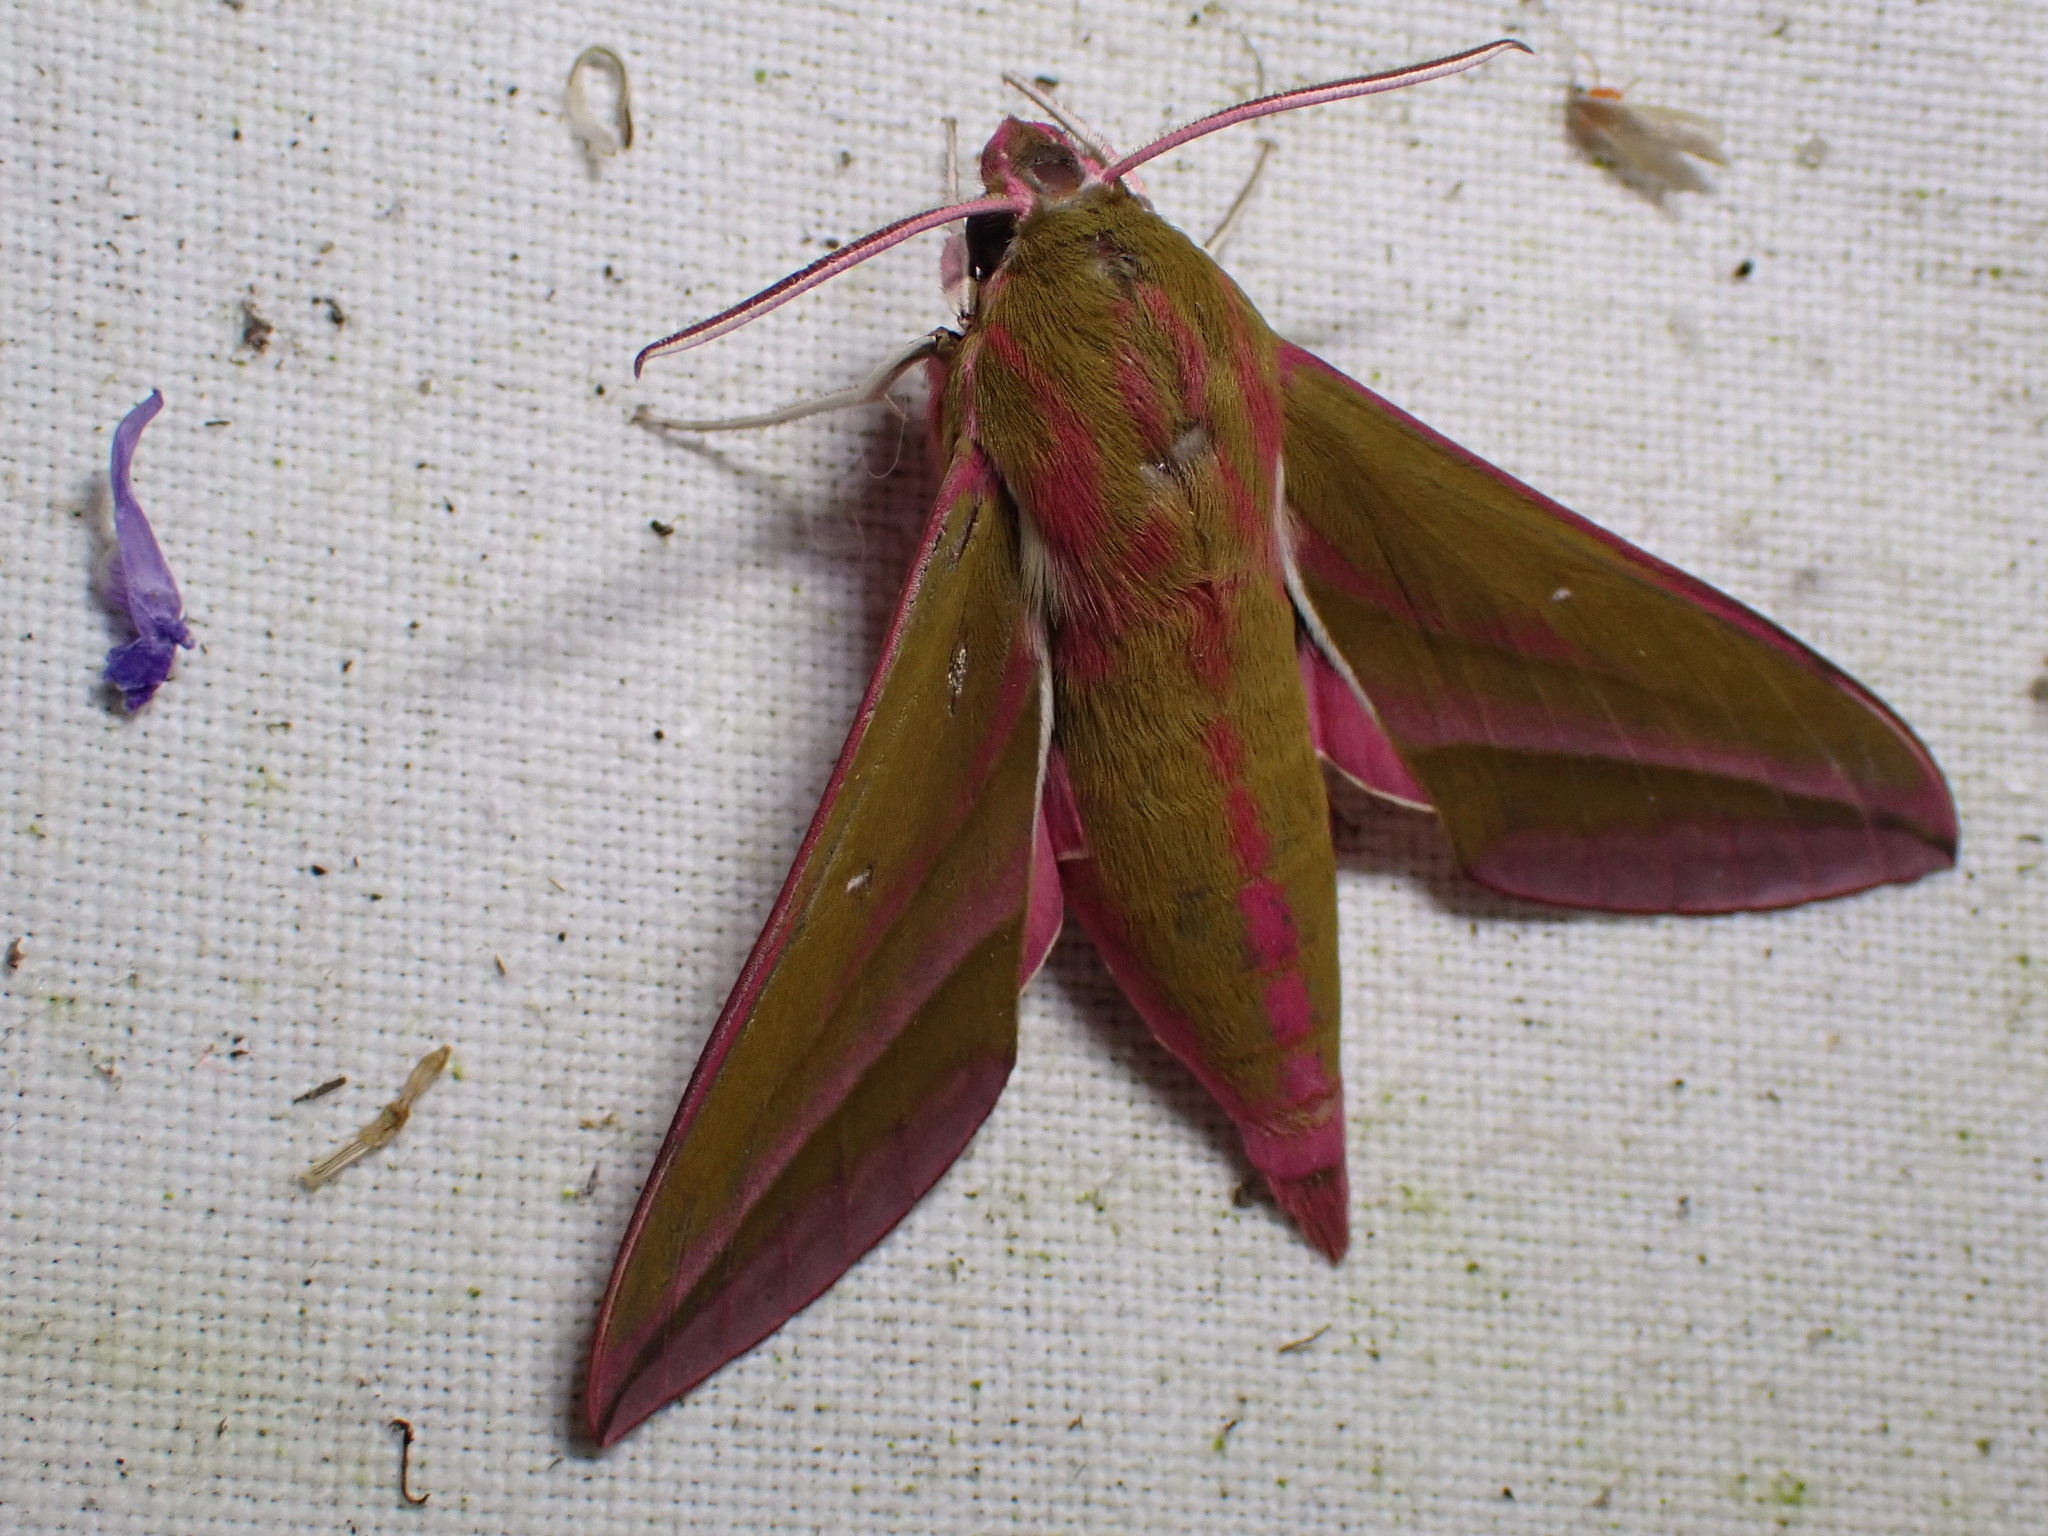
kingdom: Animalia
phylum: Arthropoda
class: Insecta
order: Lepidoptera
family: Sphingidae
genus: Deilephila
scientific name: Deilephila elpenor
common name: Elephant hawk-moth
